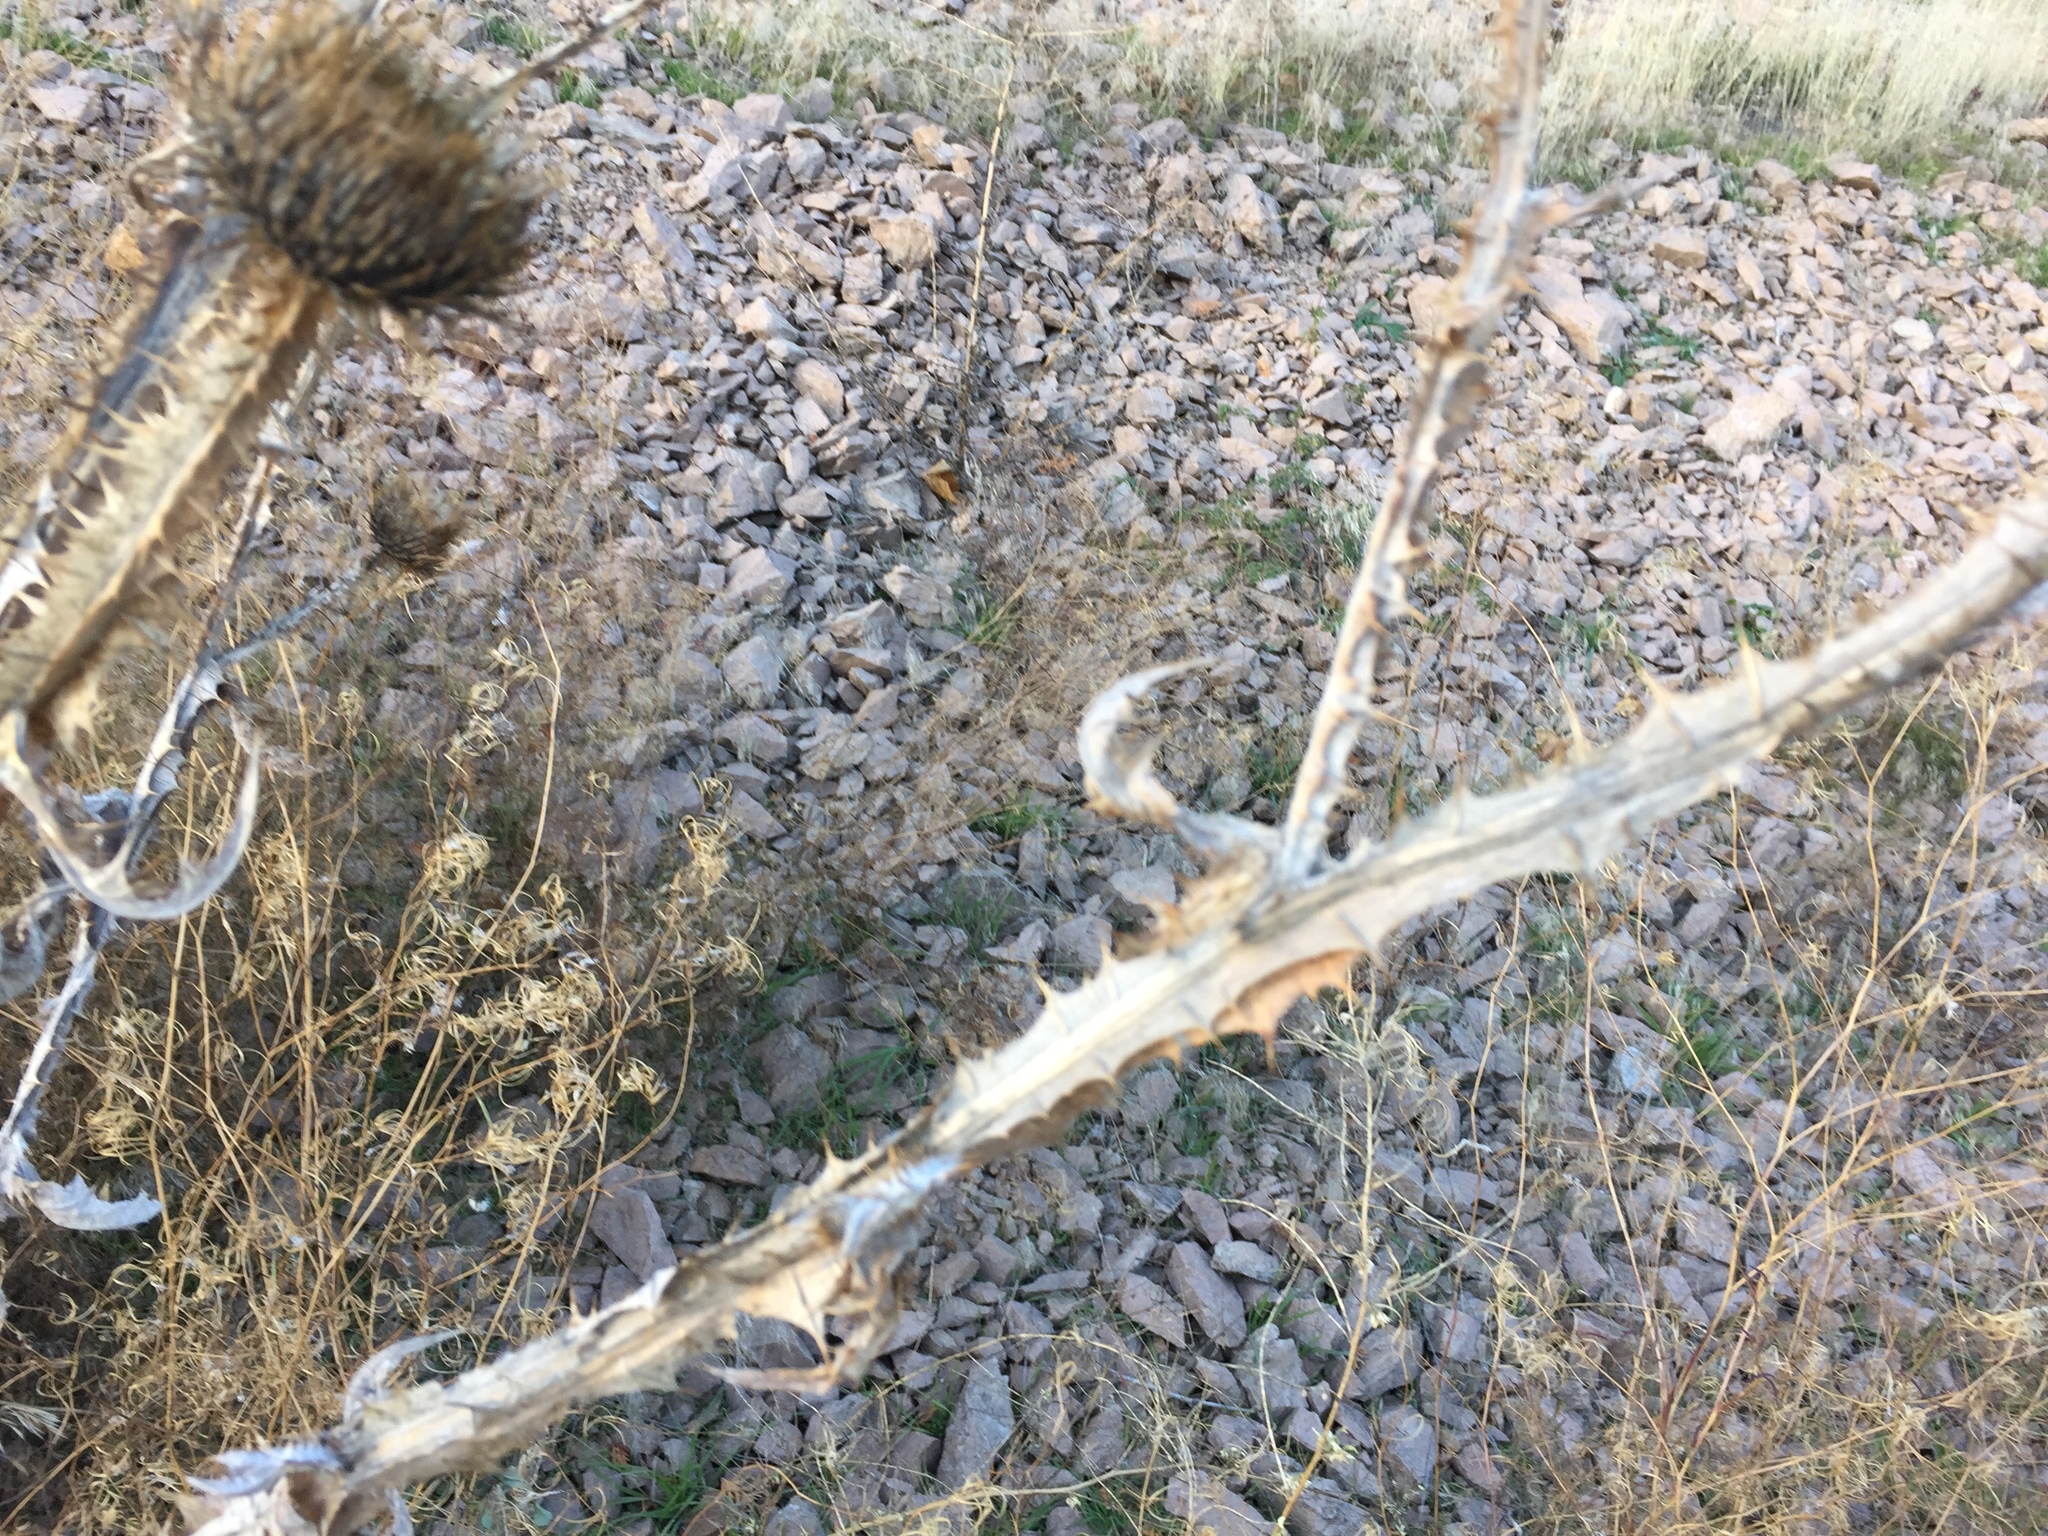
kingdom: Plantae
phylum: Tracheophyta
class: Magnoliopsida
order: Asterales
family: Asteraceae
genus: Onopordum
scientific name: Onopordum acanthium
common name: Scotch thistle
